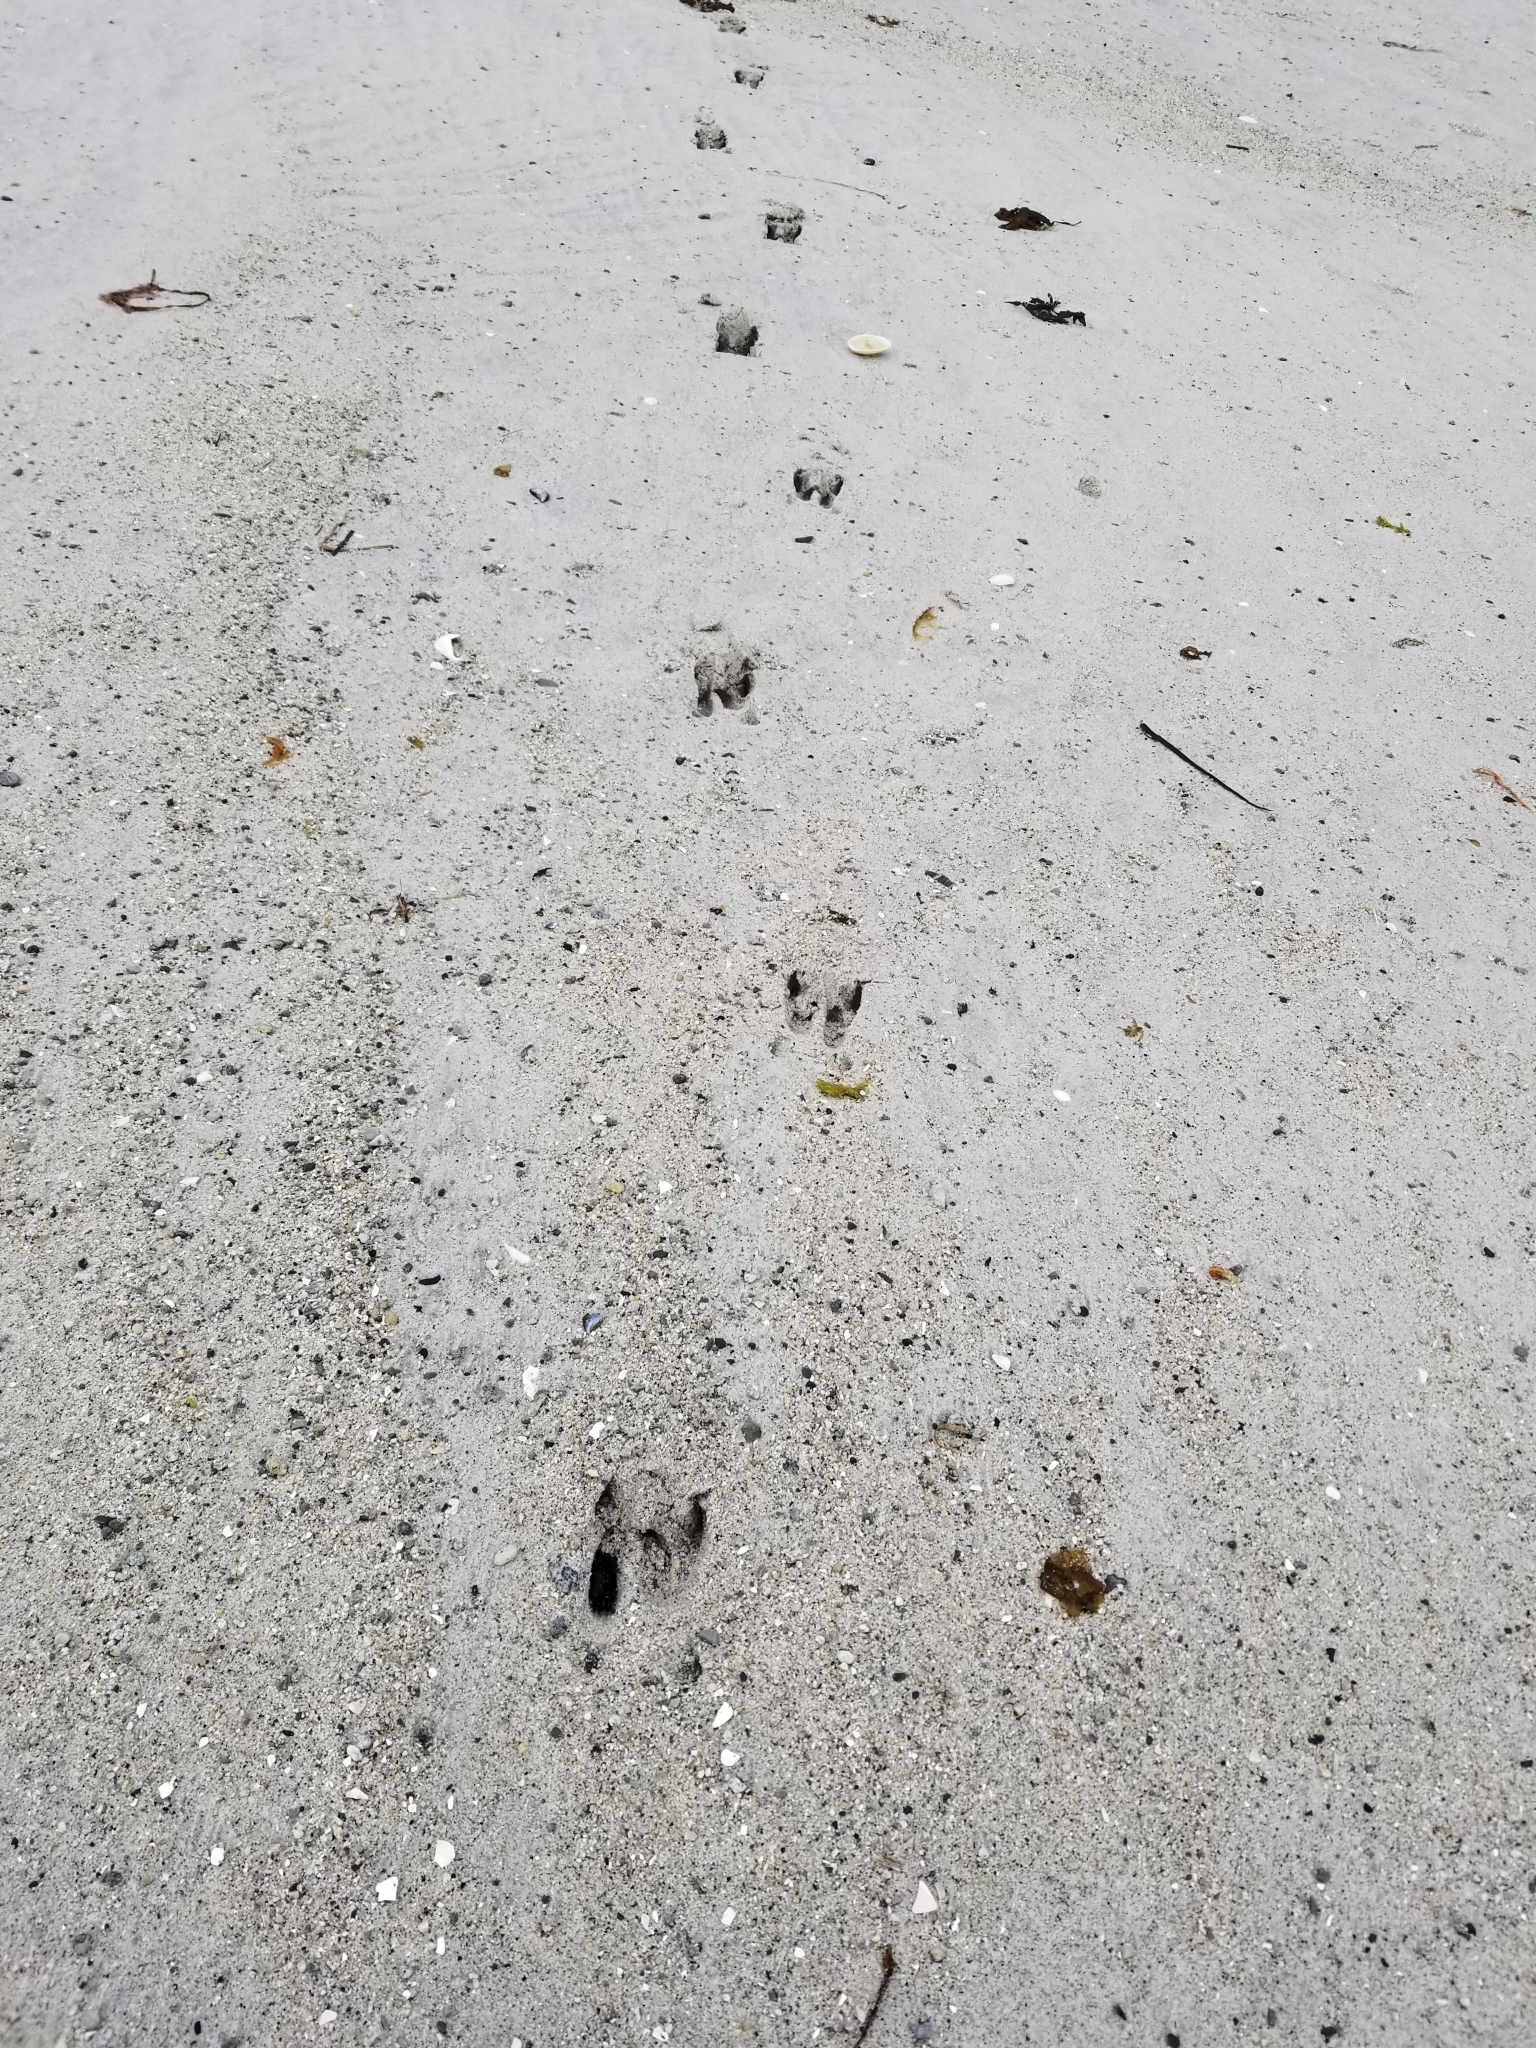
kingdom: Animalia
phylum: Chordata
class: Mammalia
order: Artiodactyla
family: Cervidae
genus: Odocoileus
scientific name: Odocoileus hemionus
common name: Mule deer
